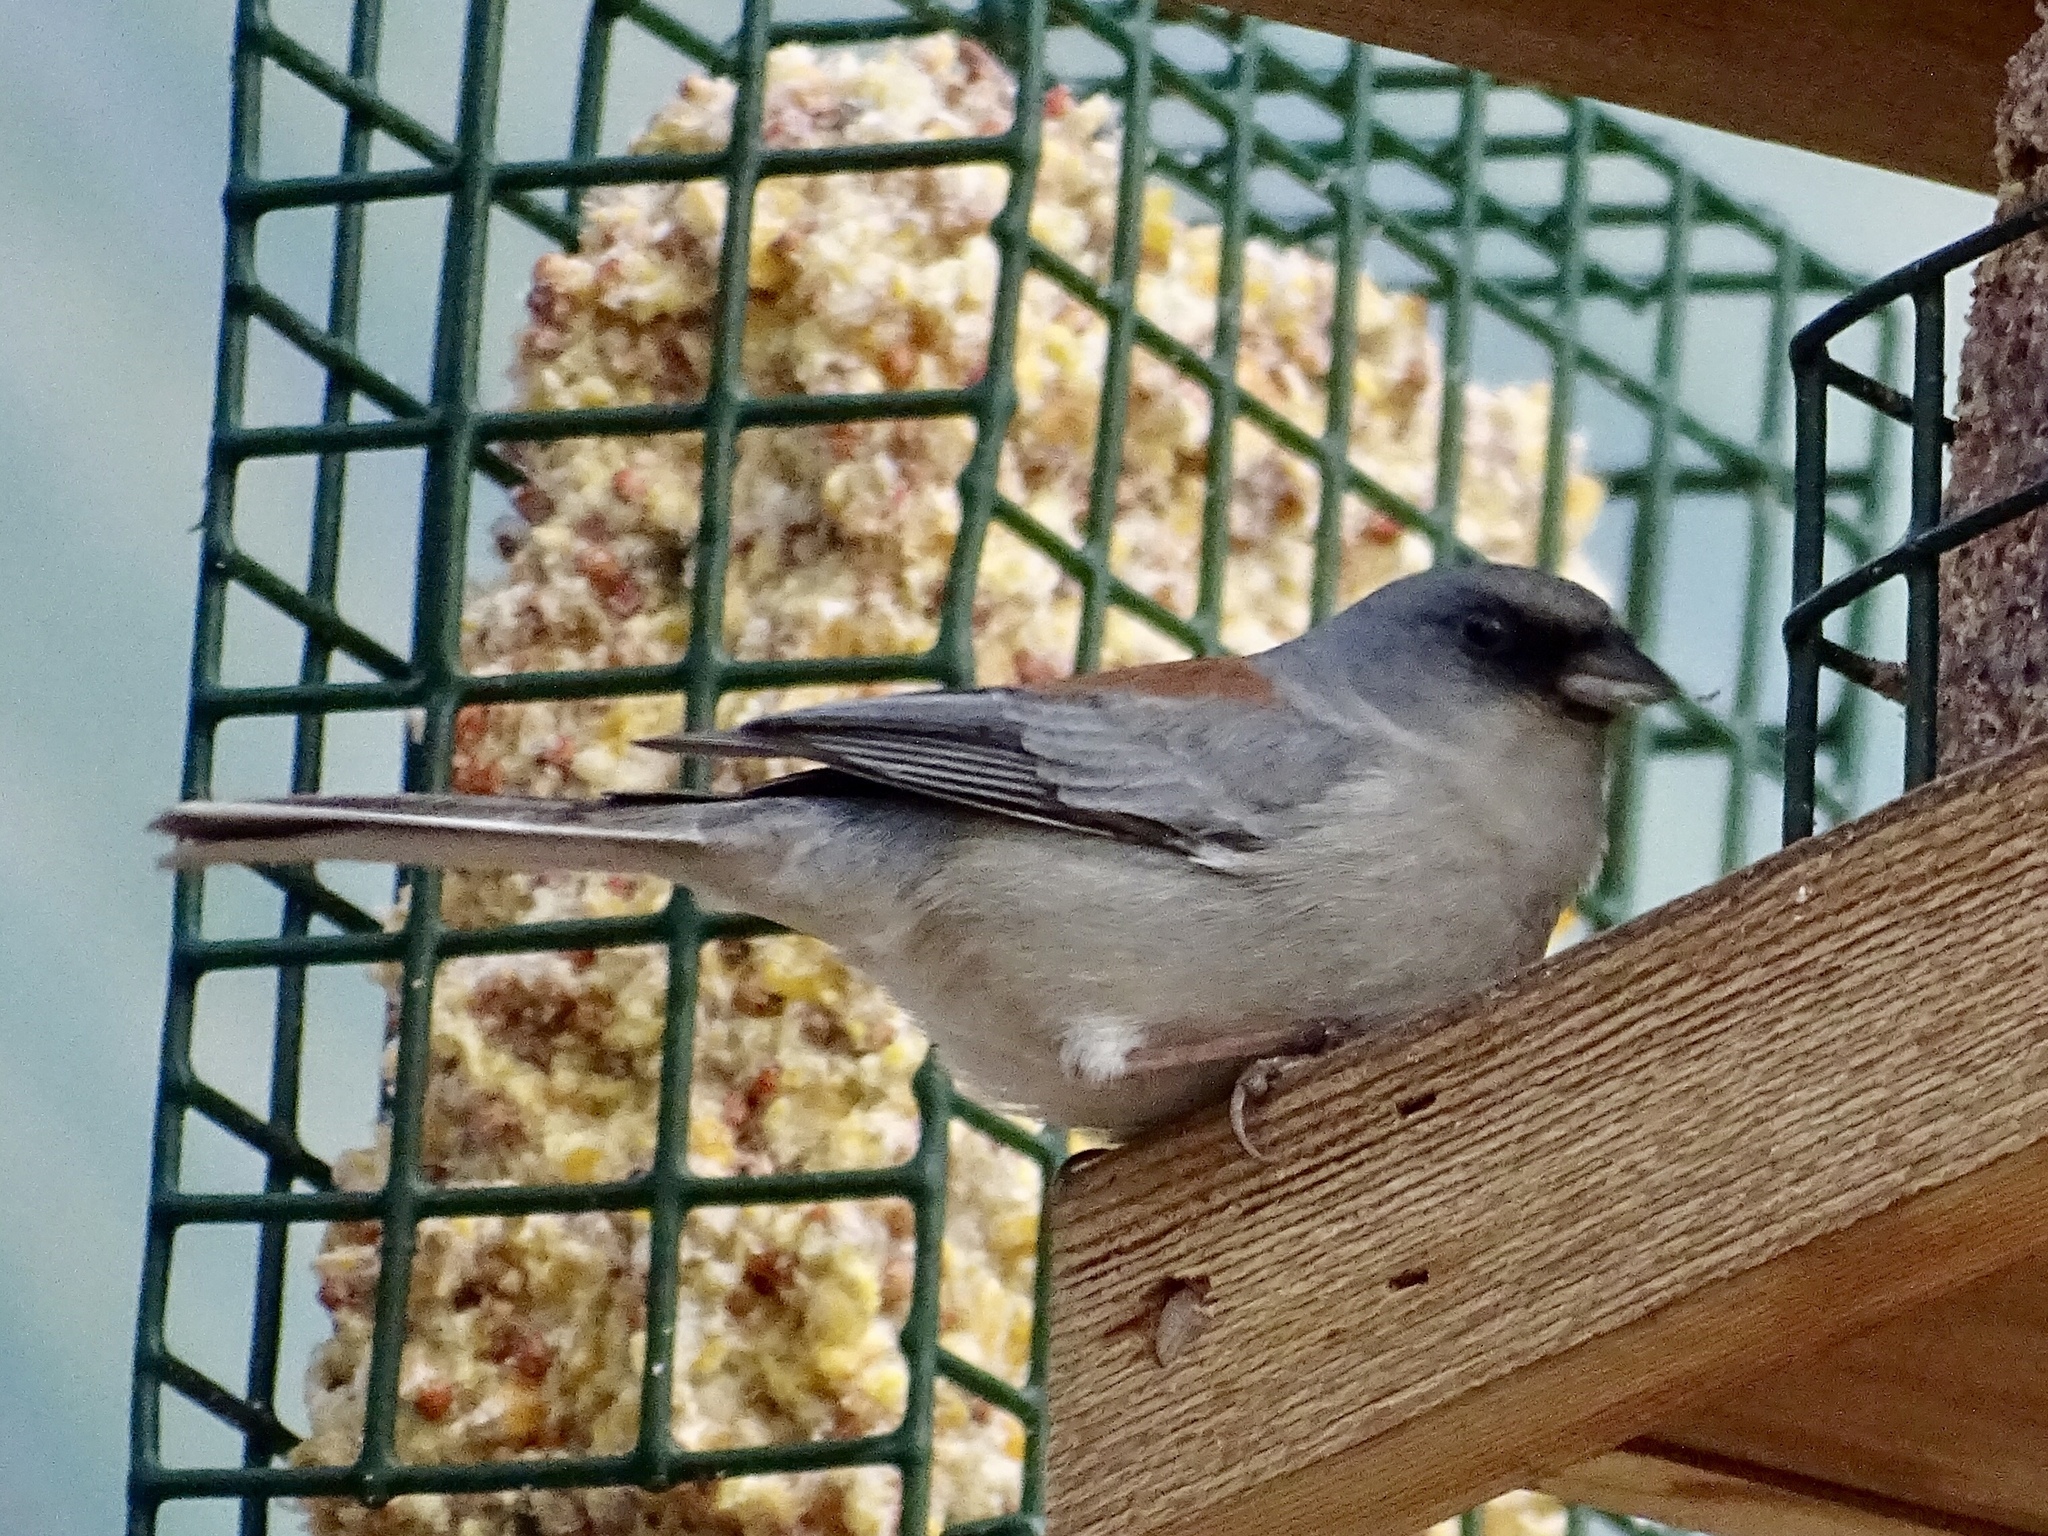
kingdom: Animalia
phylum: Chordata
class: Aves
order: Passeriformes
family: Passerellidae
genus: Junco
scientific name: Junco hyemalis
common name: Dark-eyed junco
